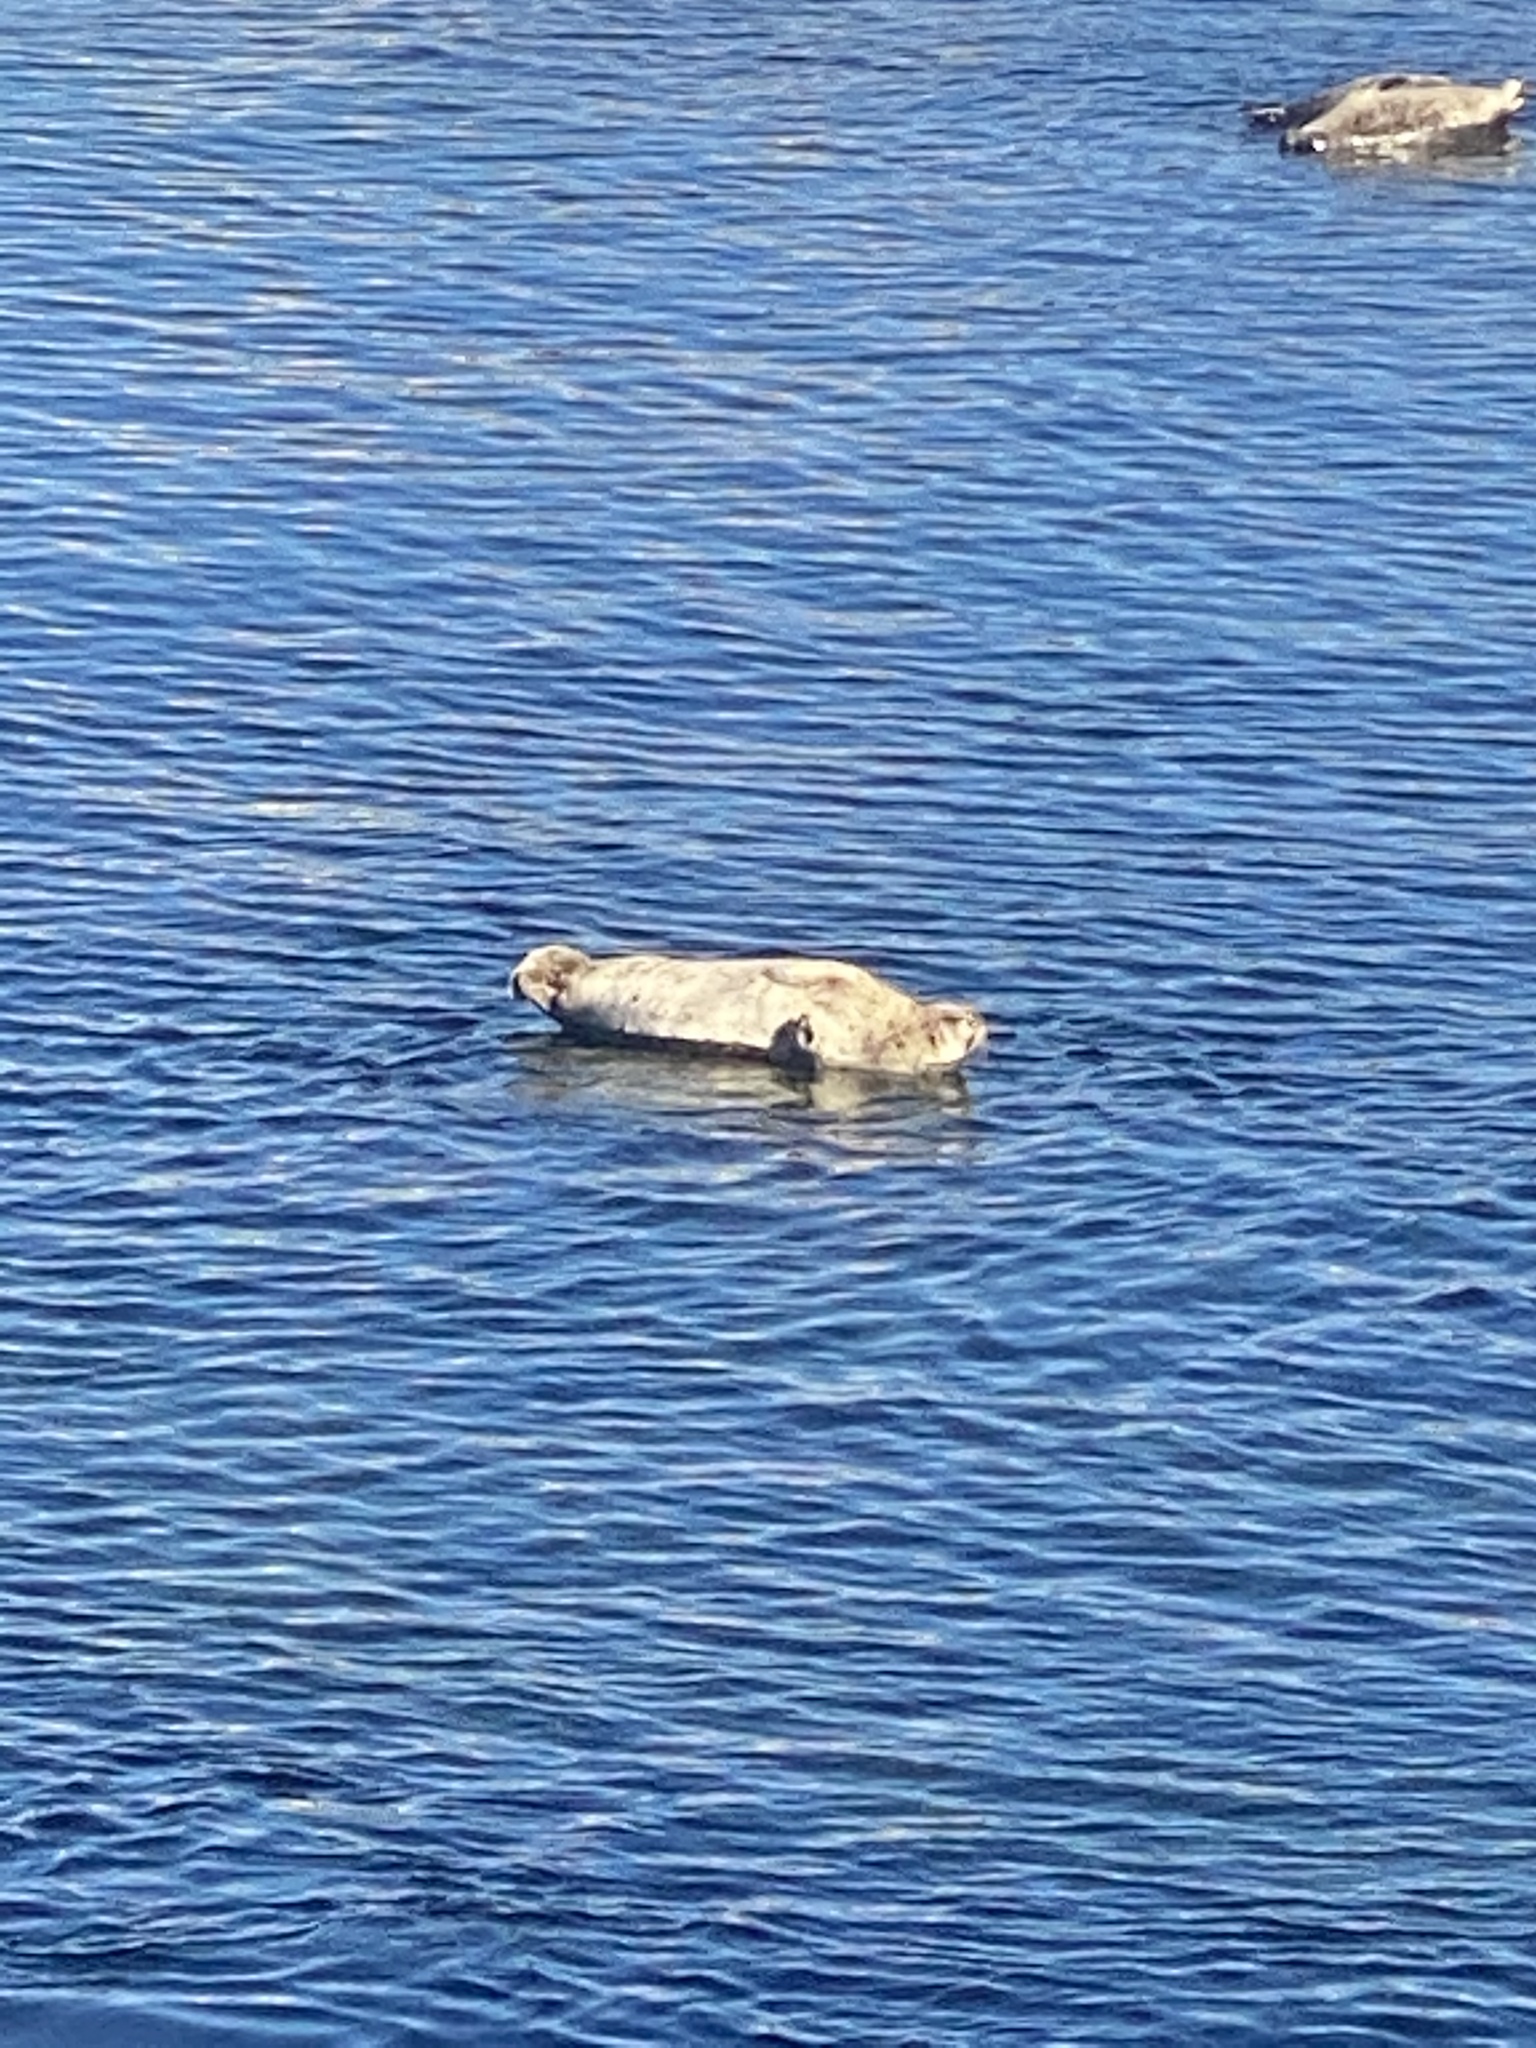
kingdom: Animalia
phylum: Chordata
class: Mammalia
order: Carnivora
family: Phocidae
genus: Phoca
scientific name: Phoca vitulina
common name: Harbor seal
